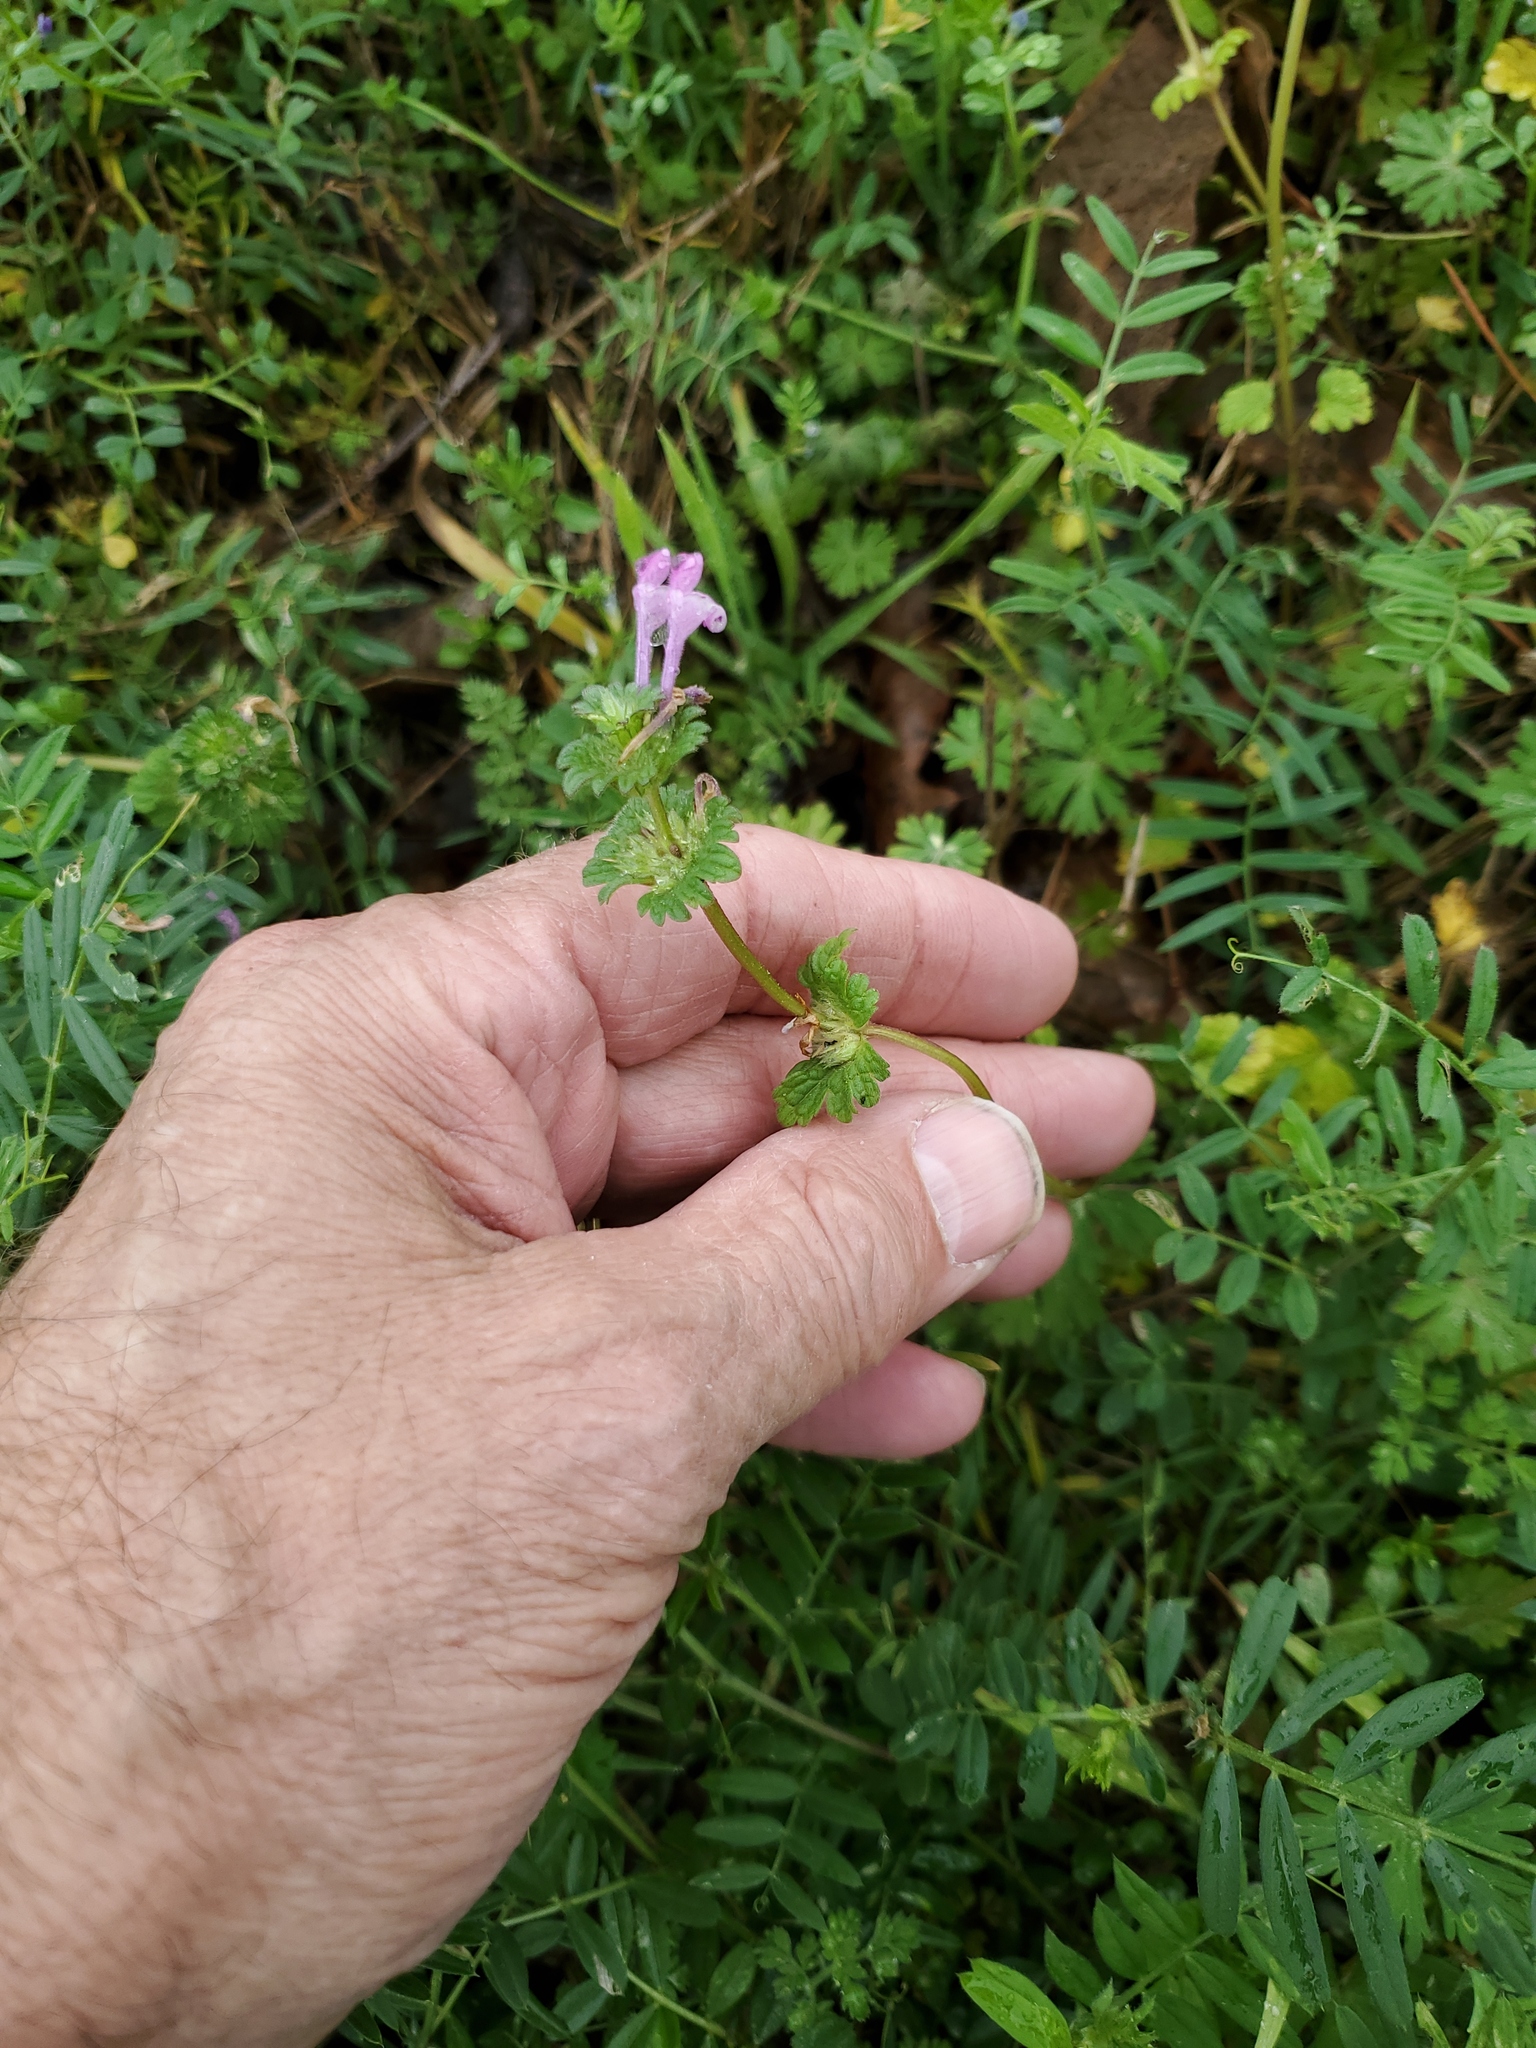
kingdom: Plantae
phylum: Tracheophyta
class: Magnoliopsida
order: Lamiales
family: Lamiaceae
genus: Lamium
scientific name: Lamium amplexicaule
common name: Henbit dead-nettle
